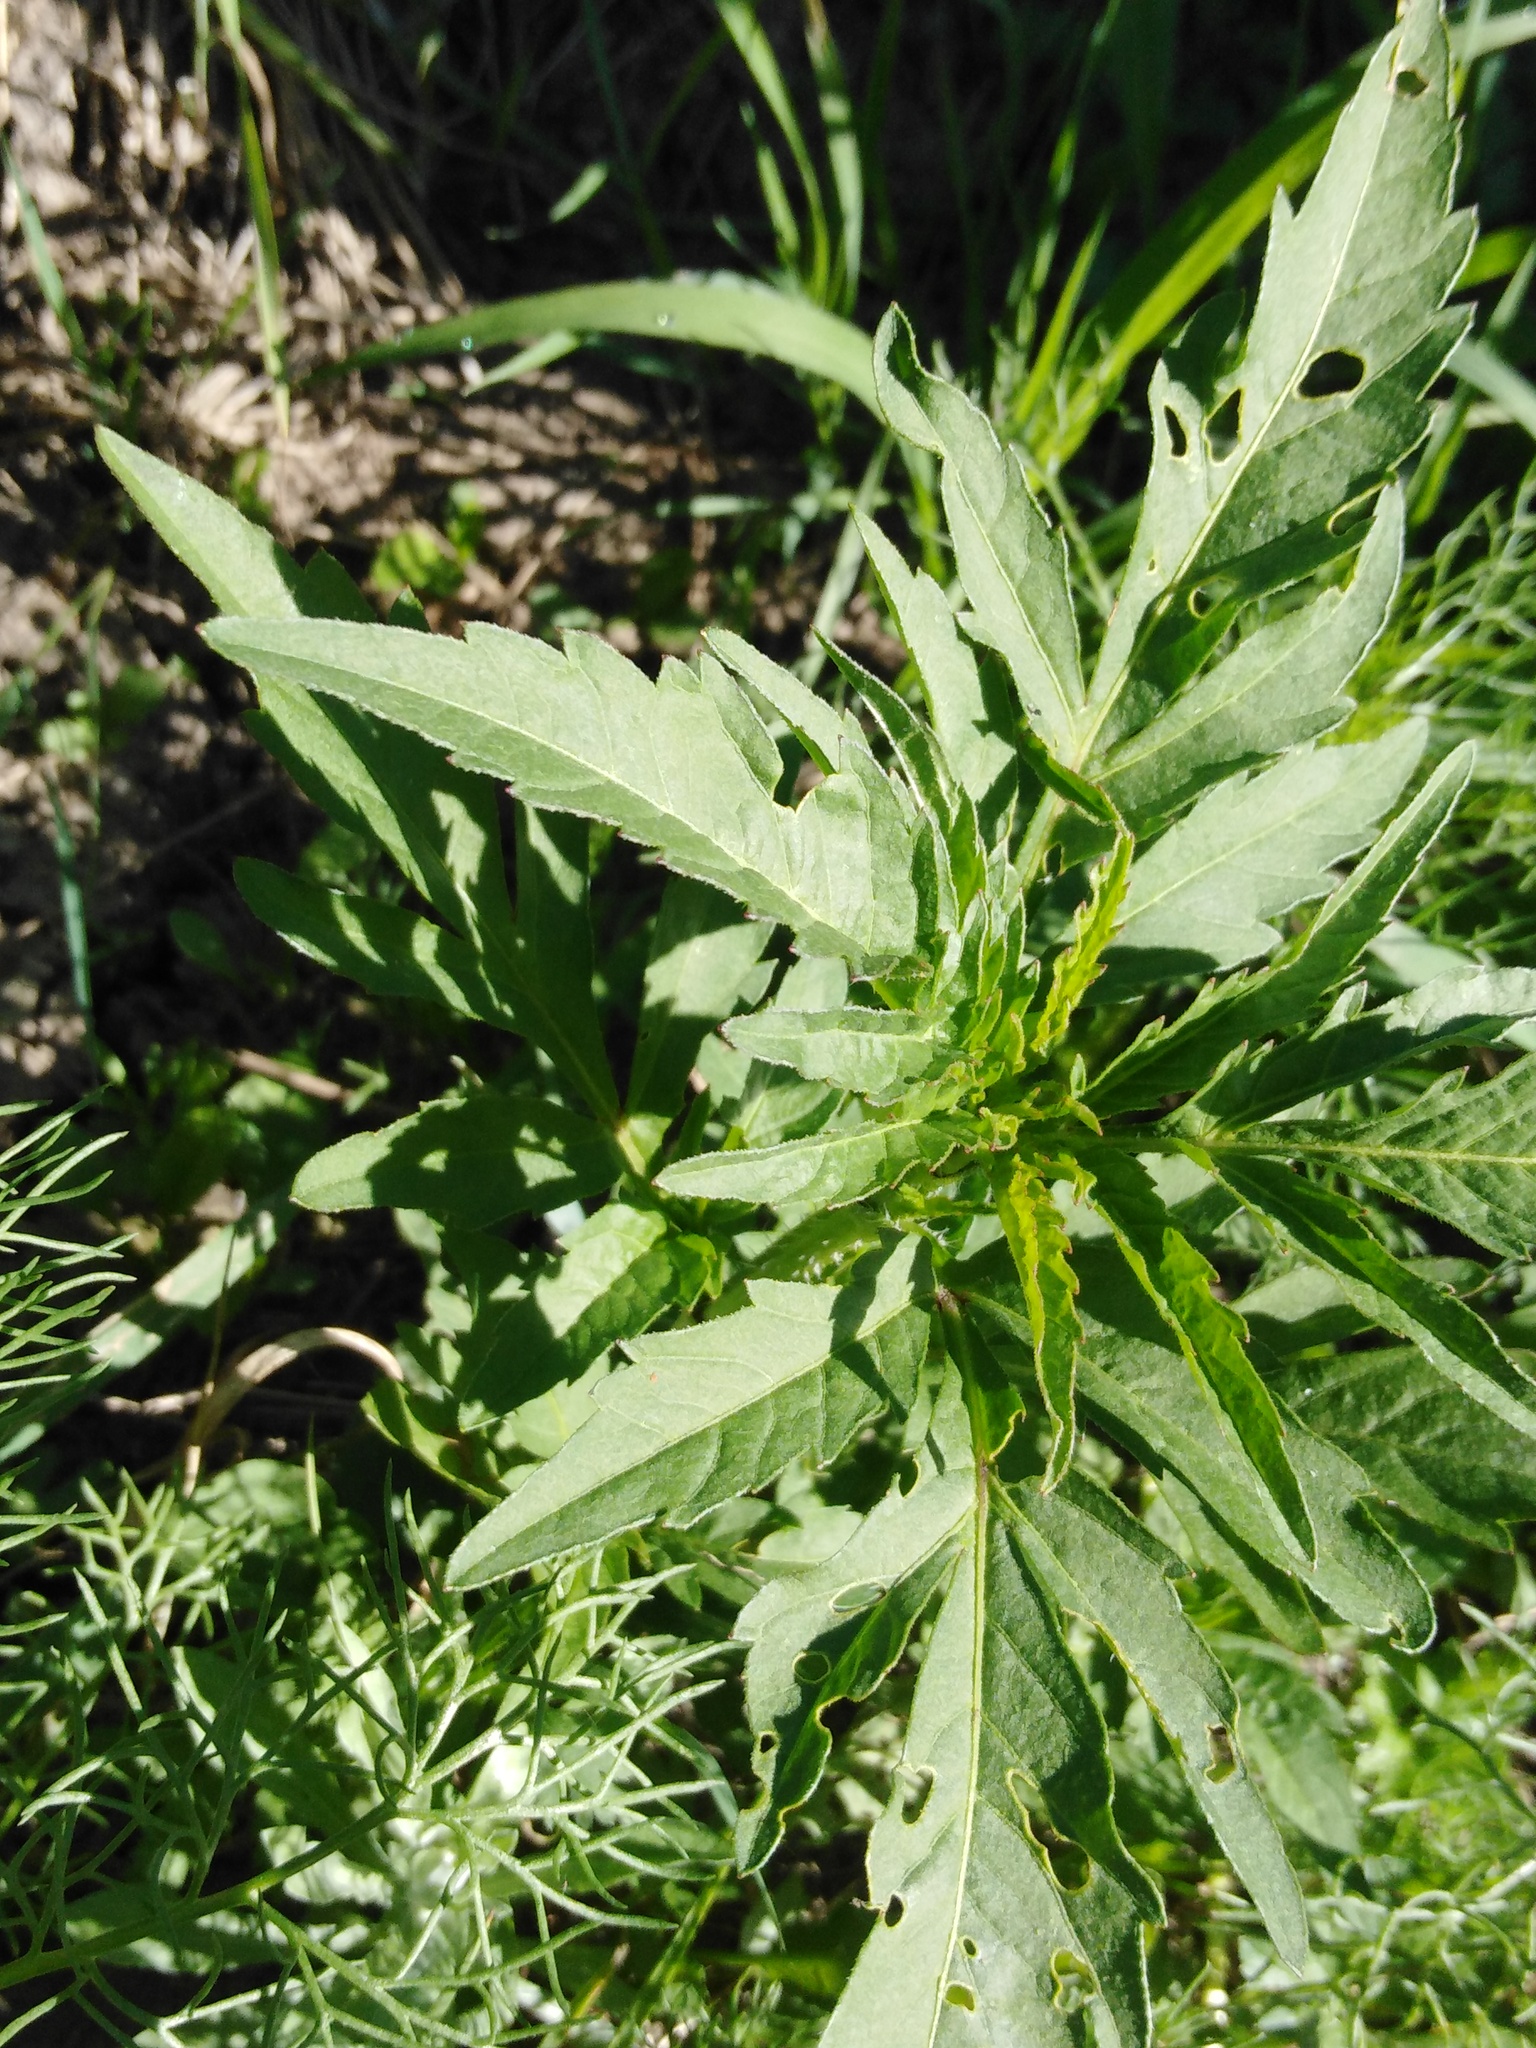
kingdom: Plantae
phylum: Tracheophyta
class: Magnoliopsida
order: Asterales
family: Asteraceae
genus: Bidens
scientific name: Bidens tripartita
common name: Trifid bur-marigold
